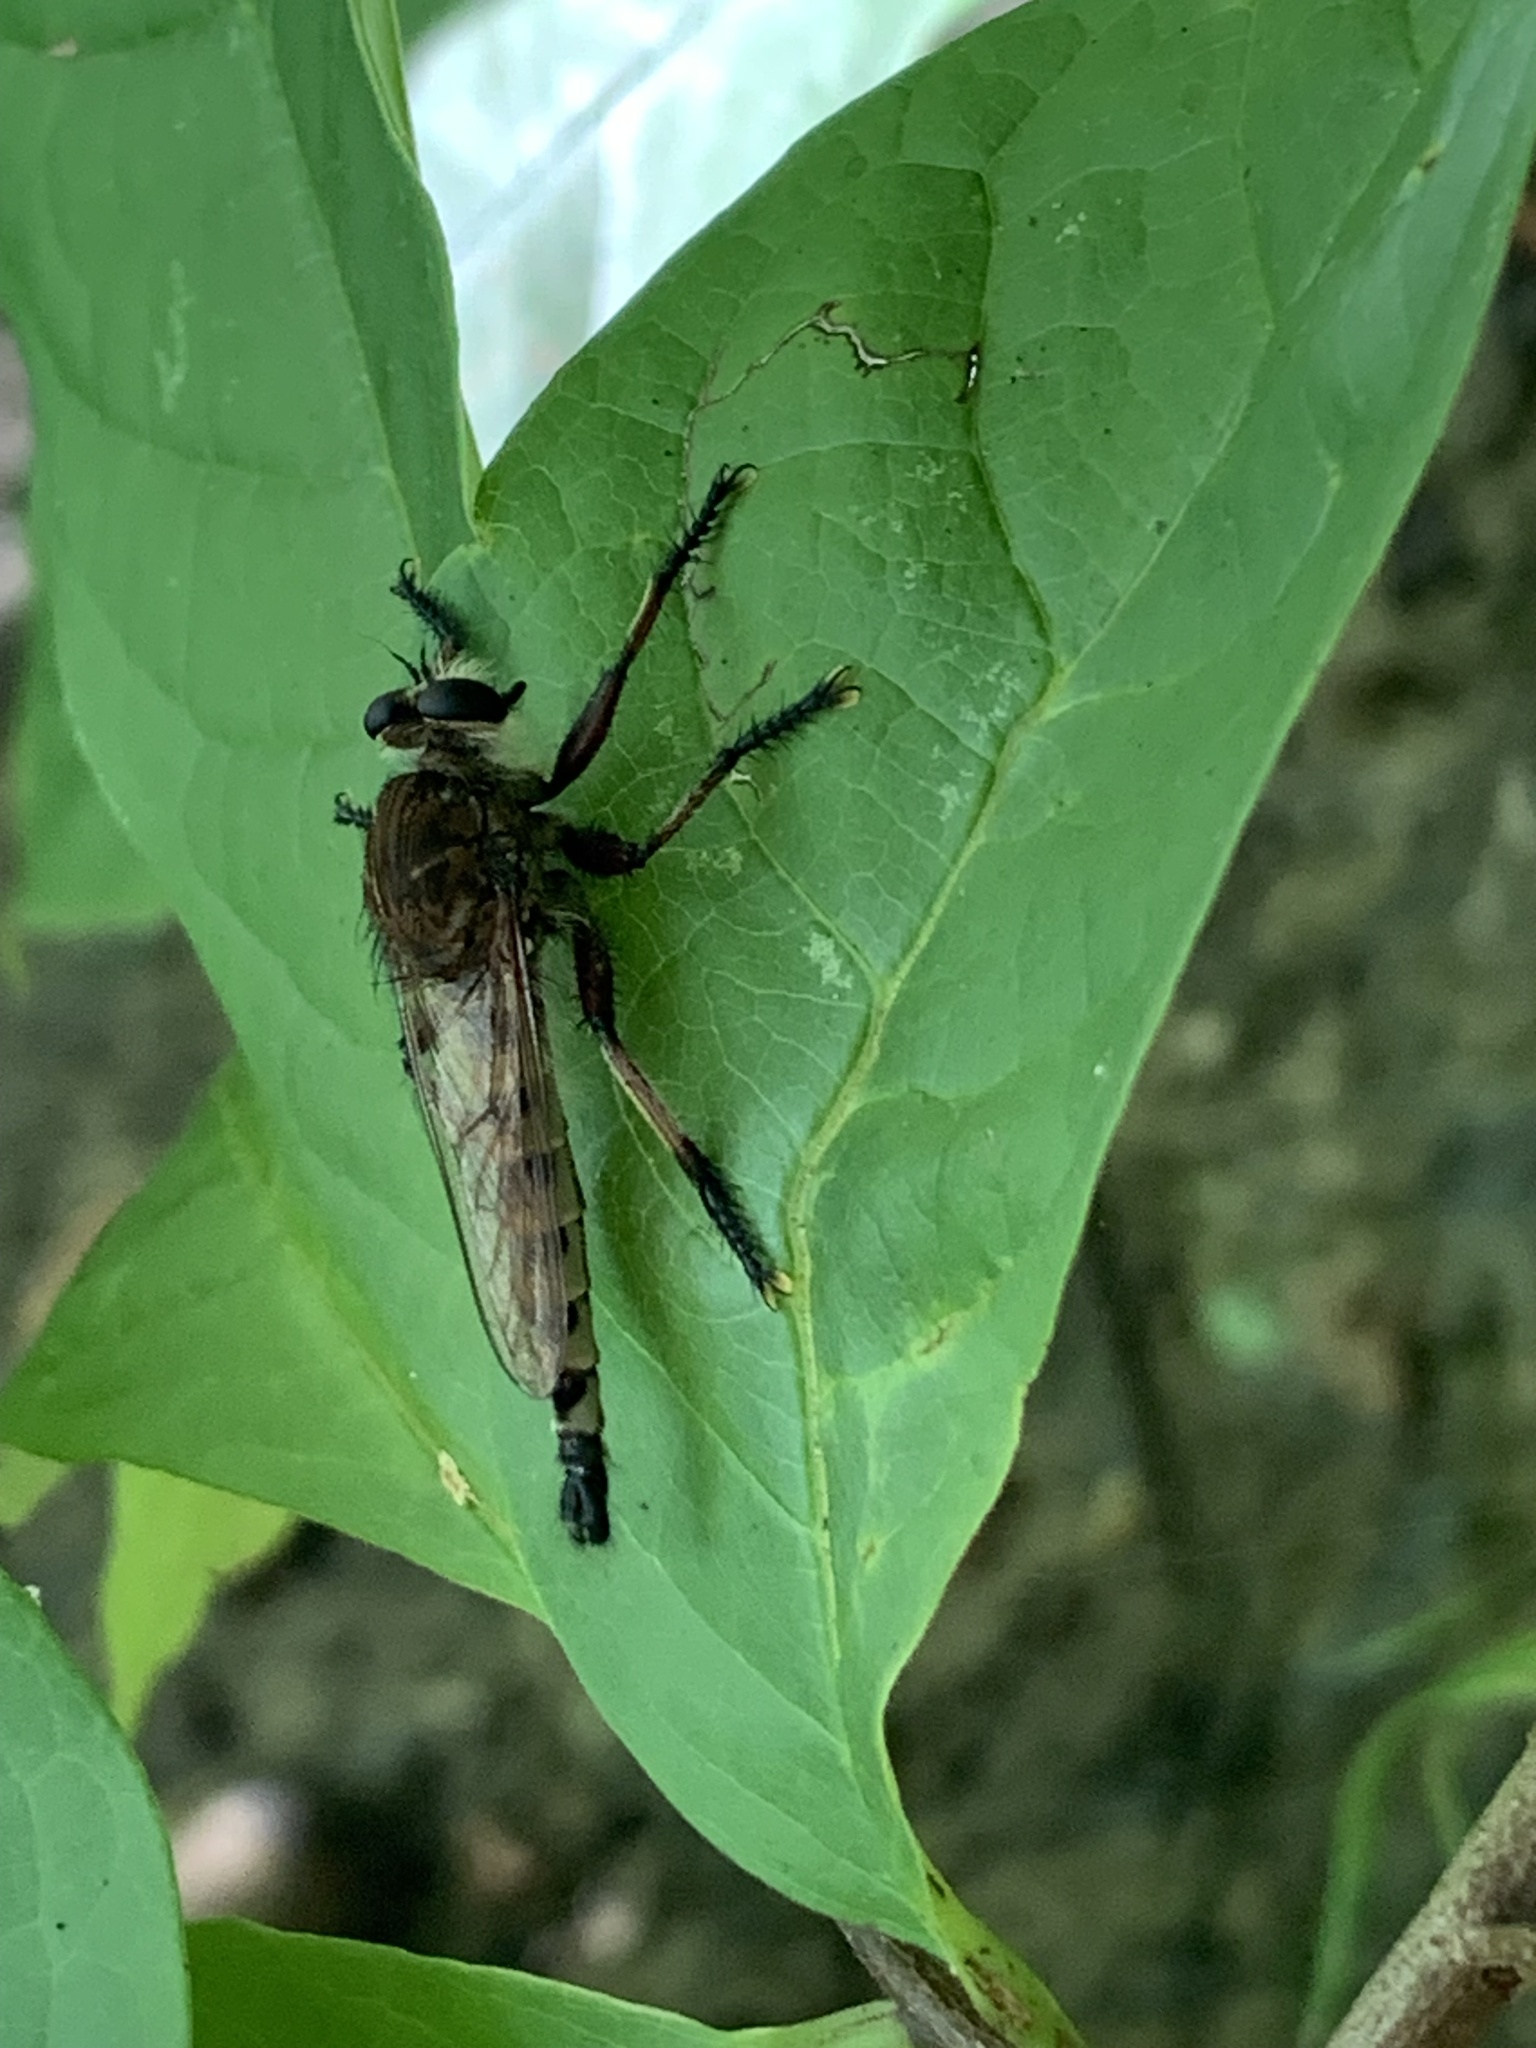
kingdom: Animalia
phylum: Arthropoda
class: Insecta
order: Diptera
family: Asilidae
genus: Promachus
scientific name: Promachus hinei
